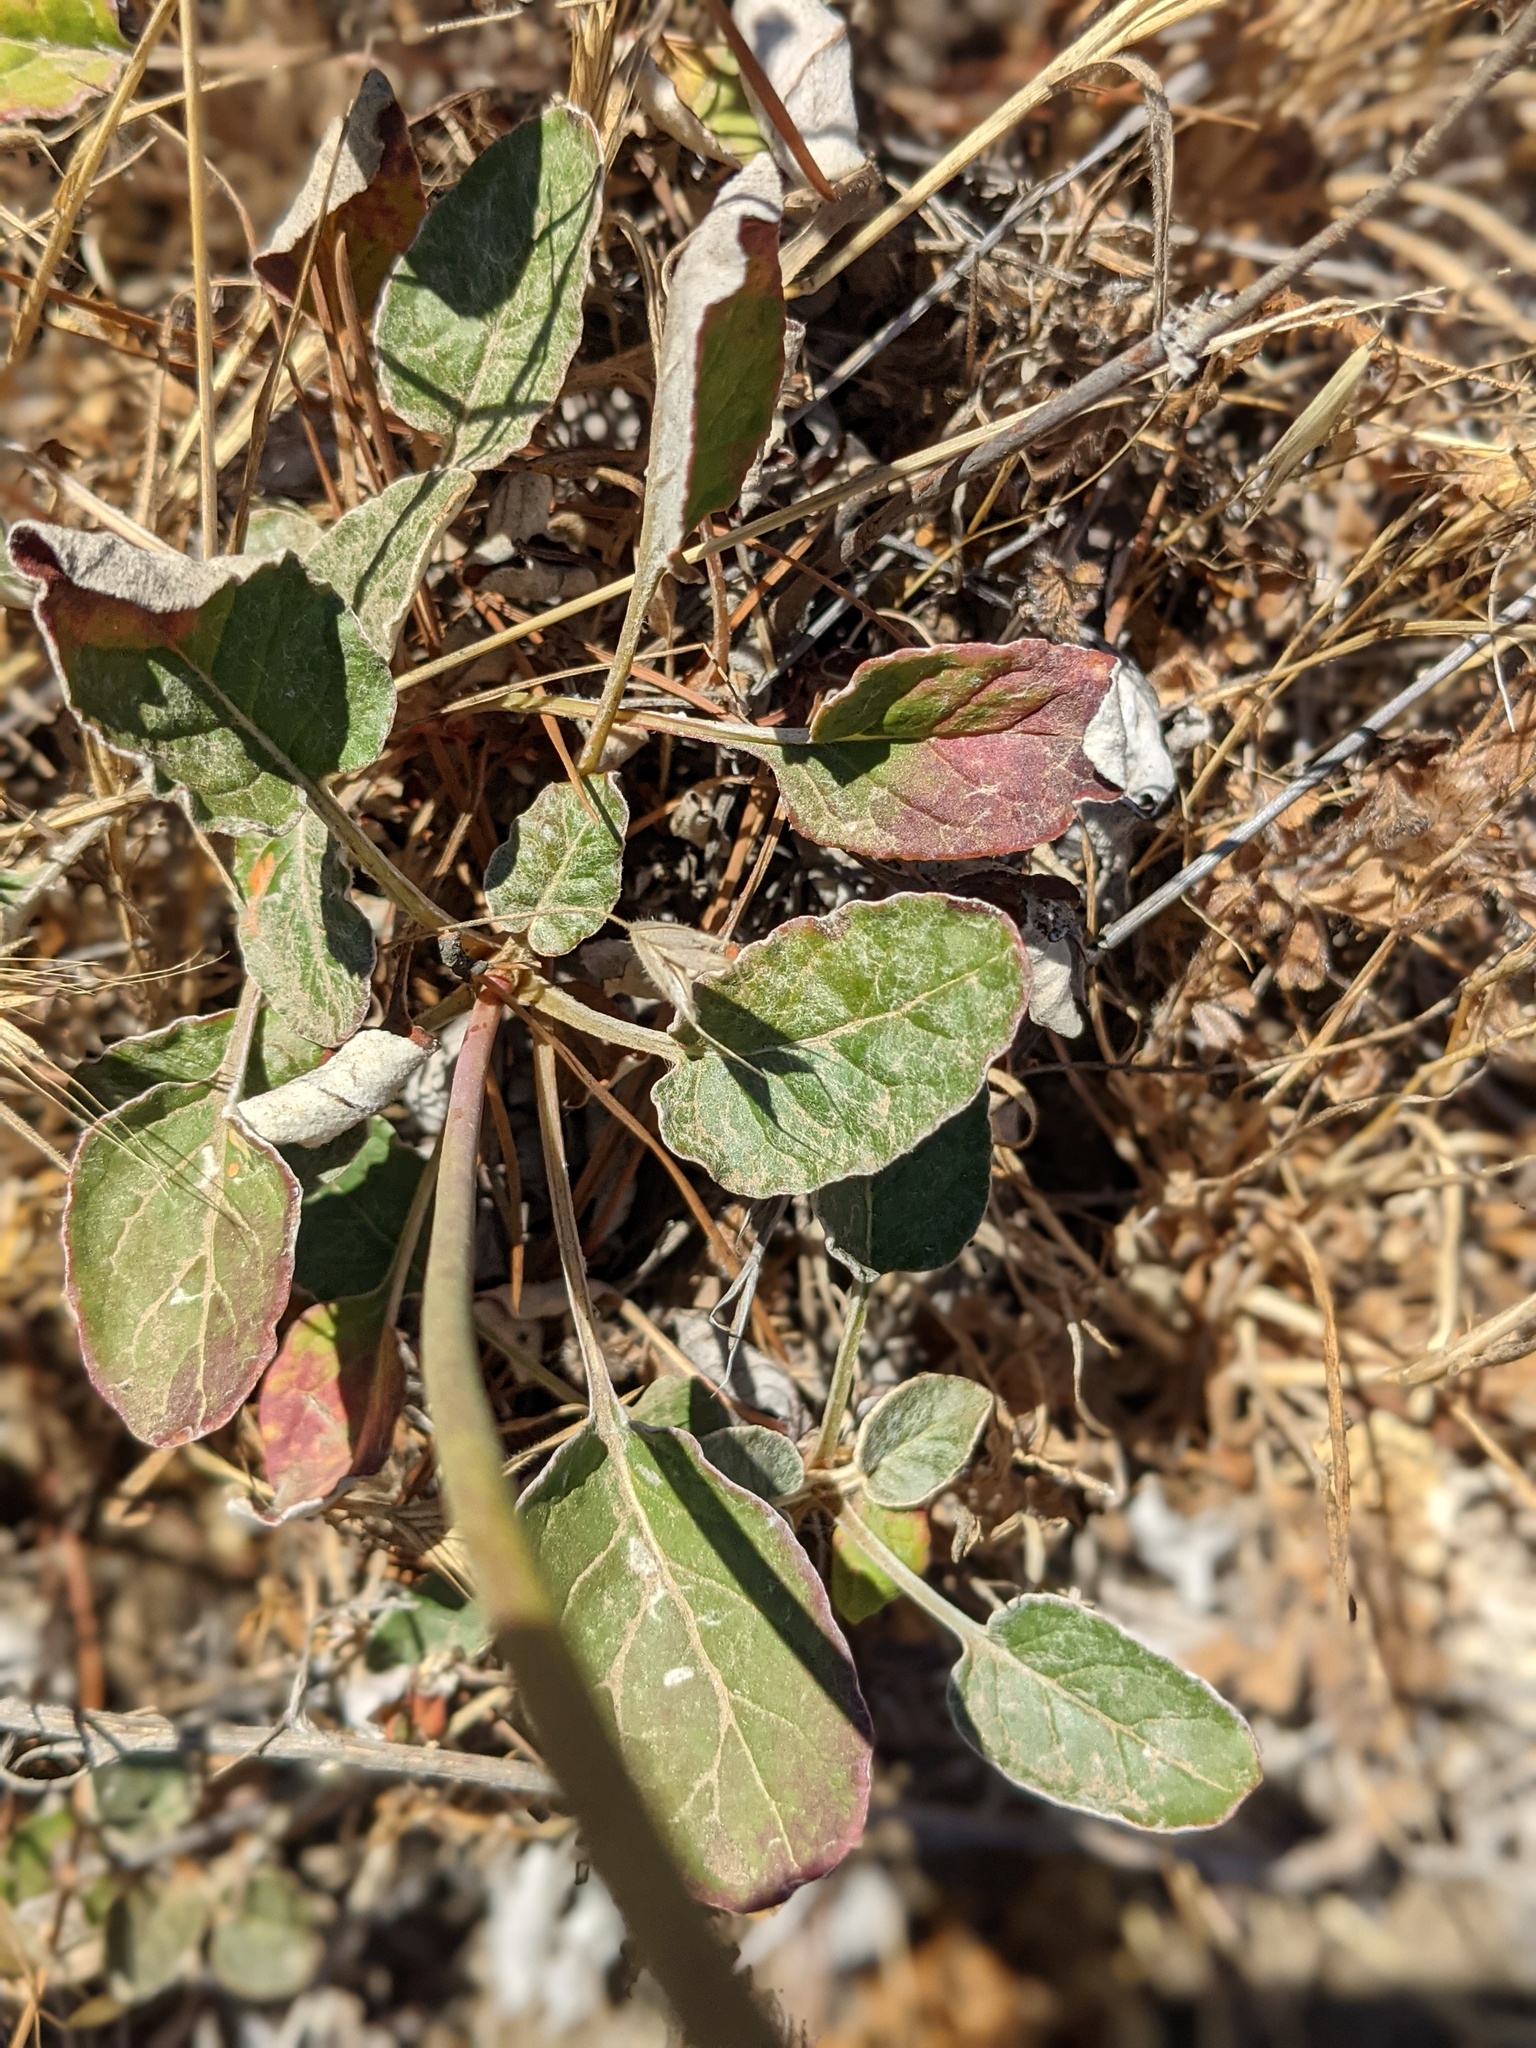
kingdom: Plantae
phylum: Tracheophyta
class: Magnoliopsida
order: Caryophyllales
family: Polygonaceae
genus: Eriogonum
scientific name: Eriogonum nudum
